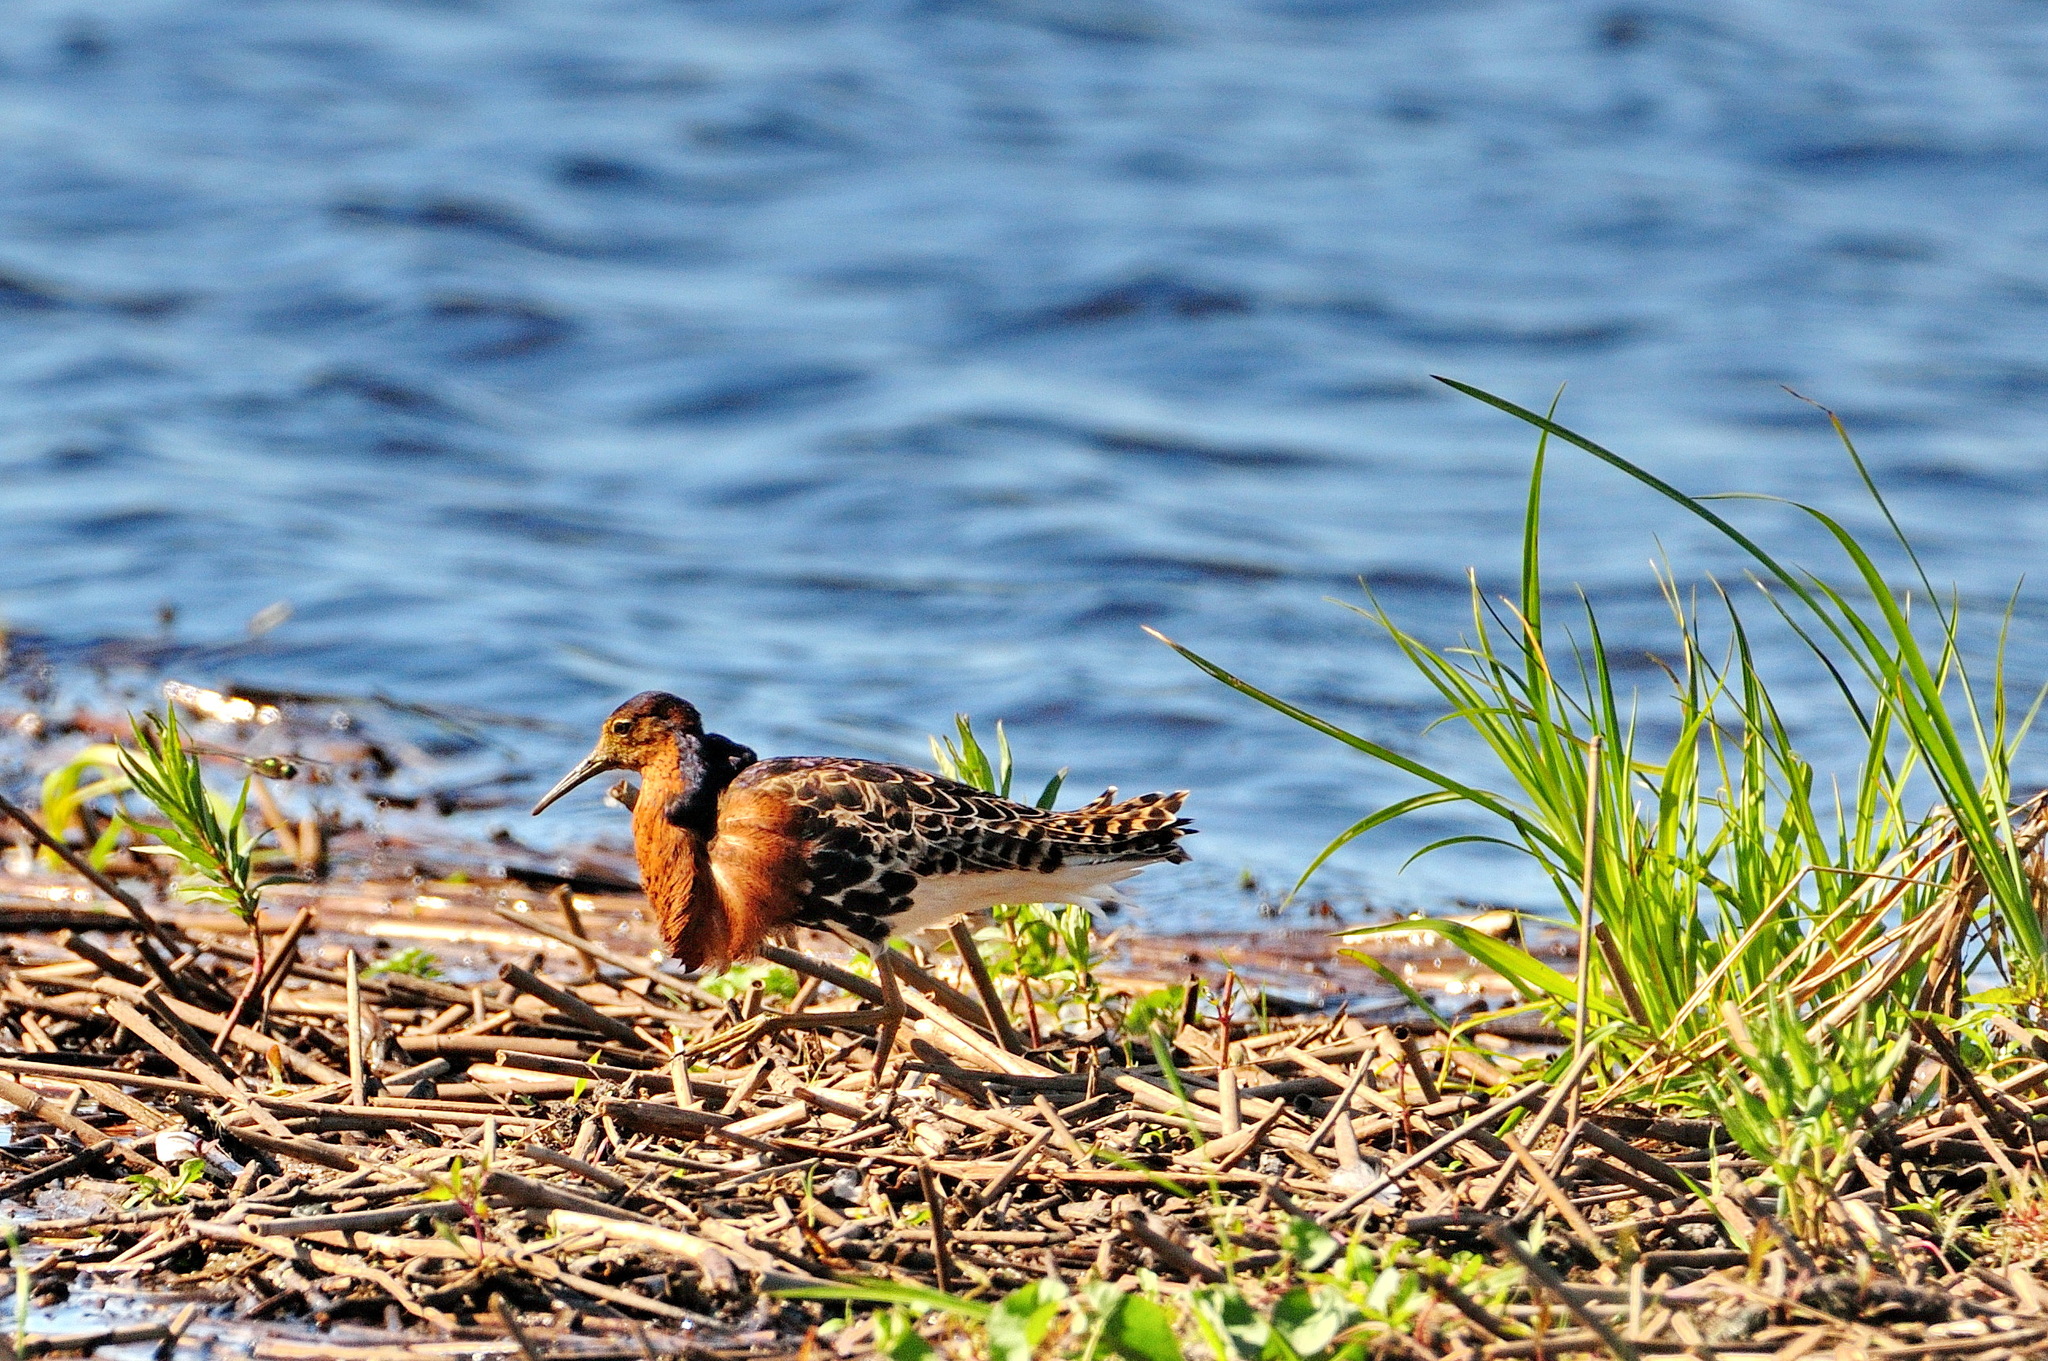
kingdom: Animalia
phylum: Chordata
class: Aves
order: Charadriiformes
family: Scolopacidae
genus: Calidris
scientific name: Calidris pugnax
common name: Ruff
